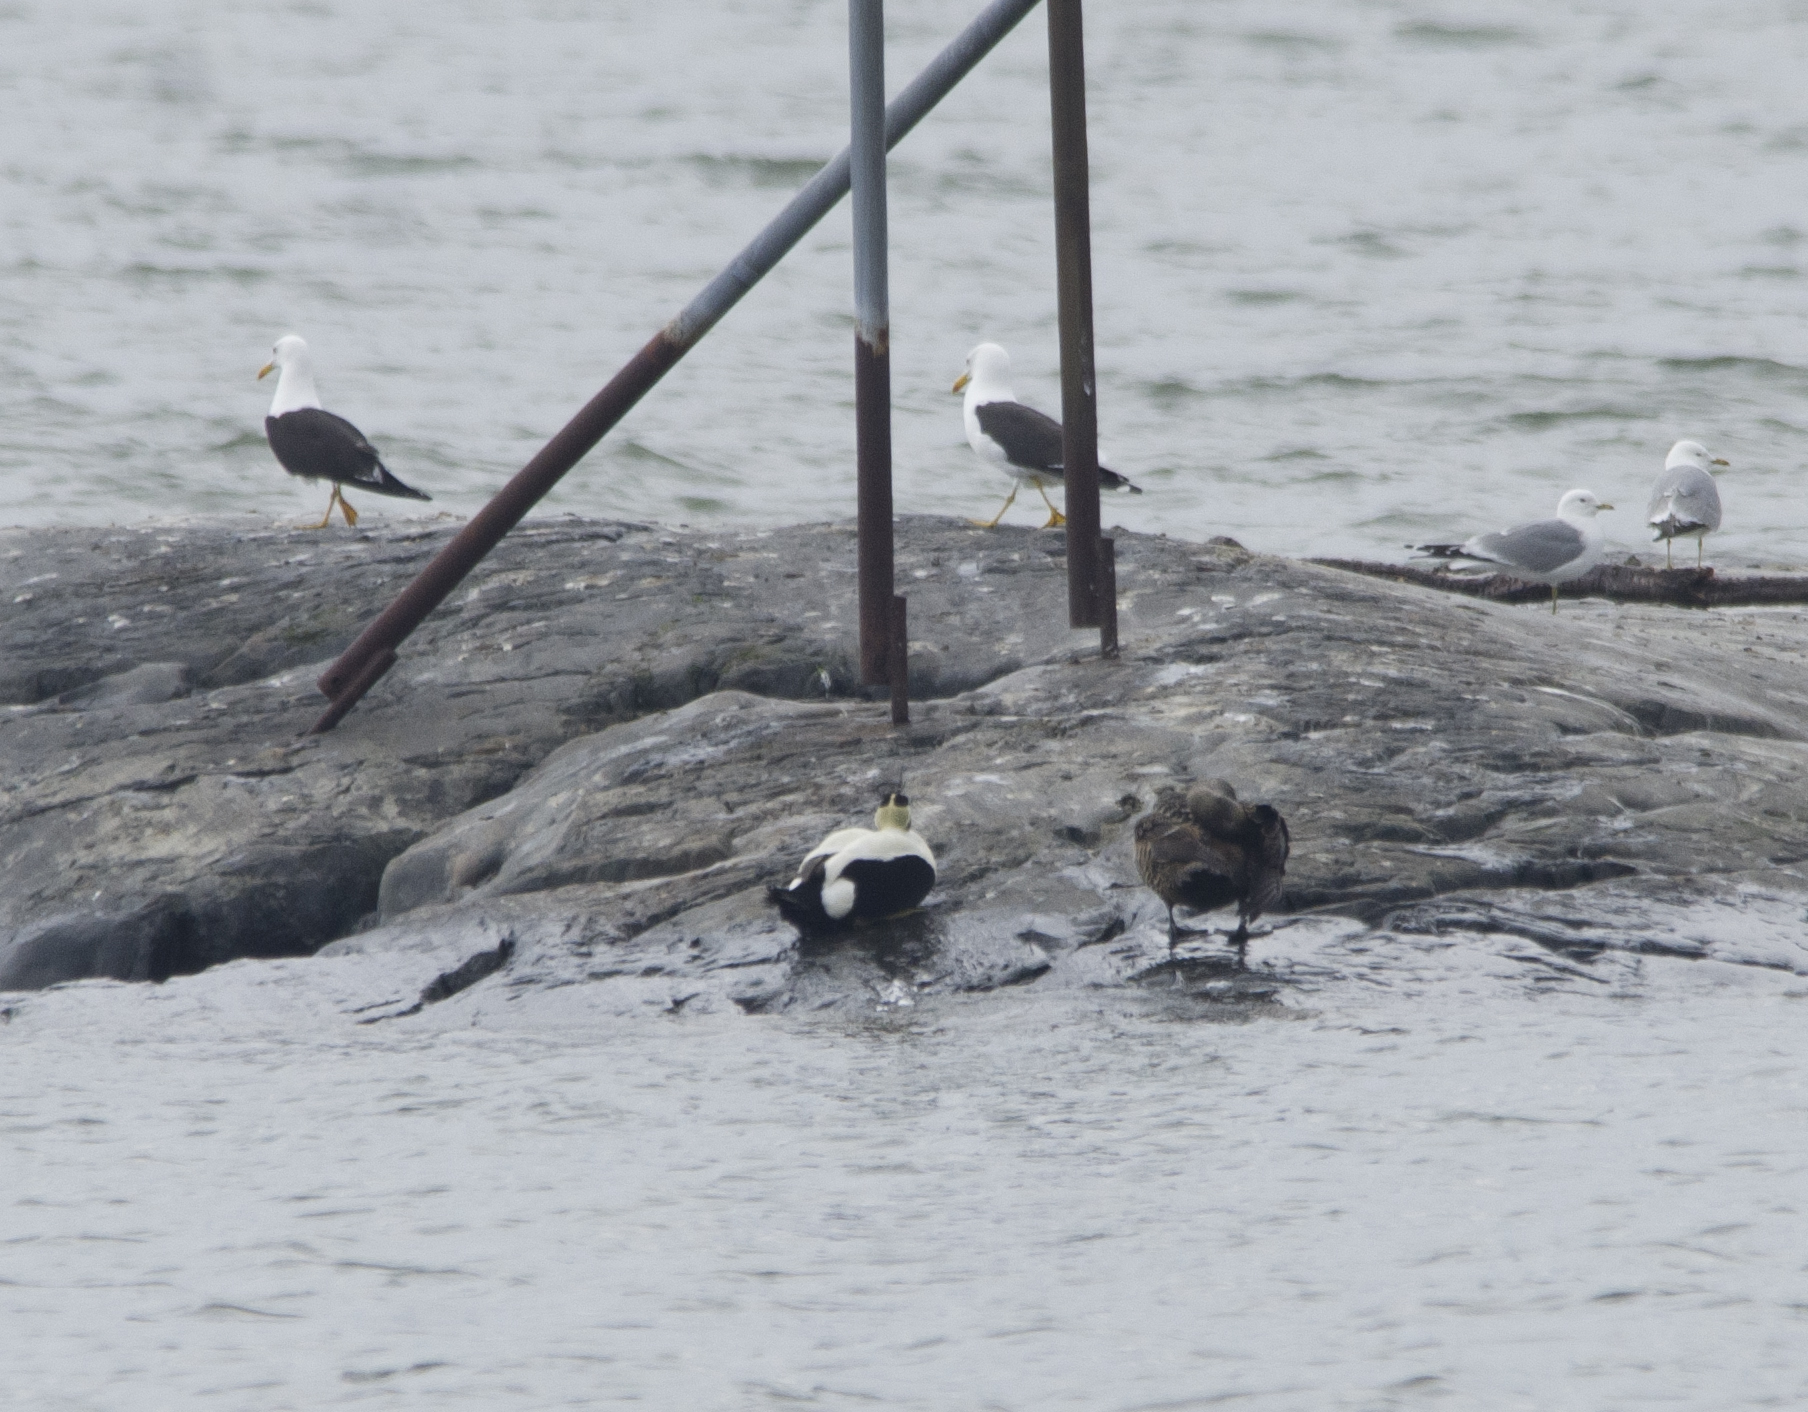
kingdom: Animalia
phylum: Chordata
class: Aves
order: Charadriiformes
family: Laridae
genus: Larus
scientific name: Larus fuscus
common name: Lesser black-backed gull
